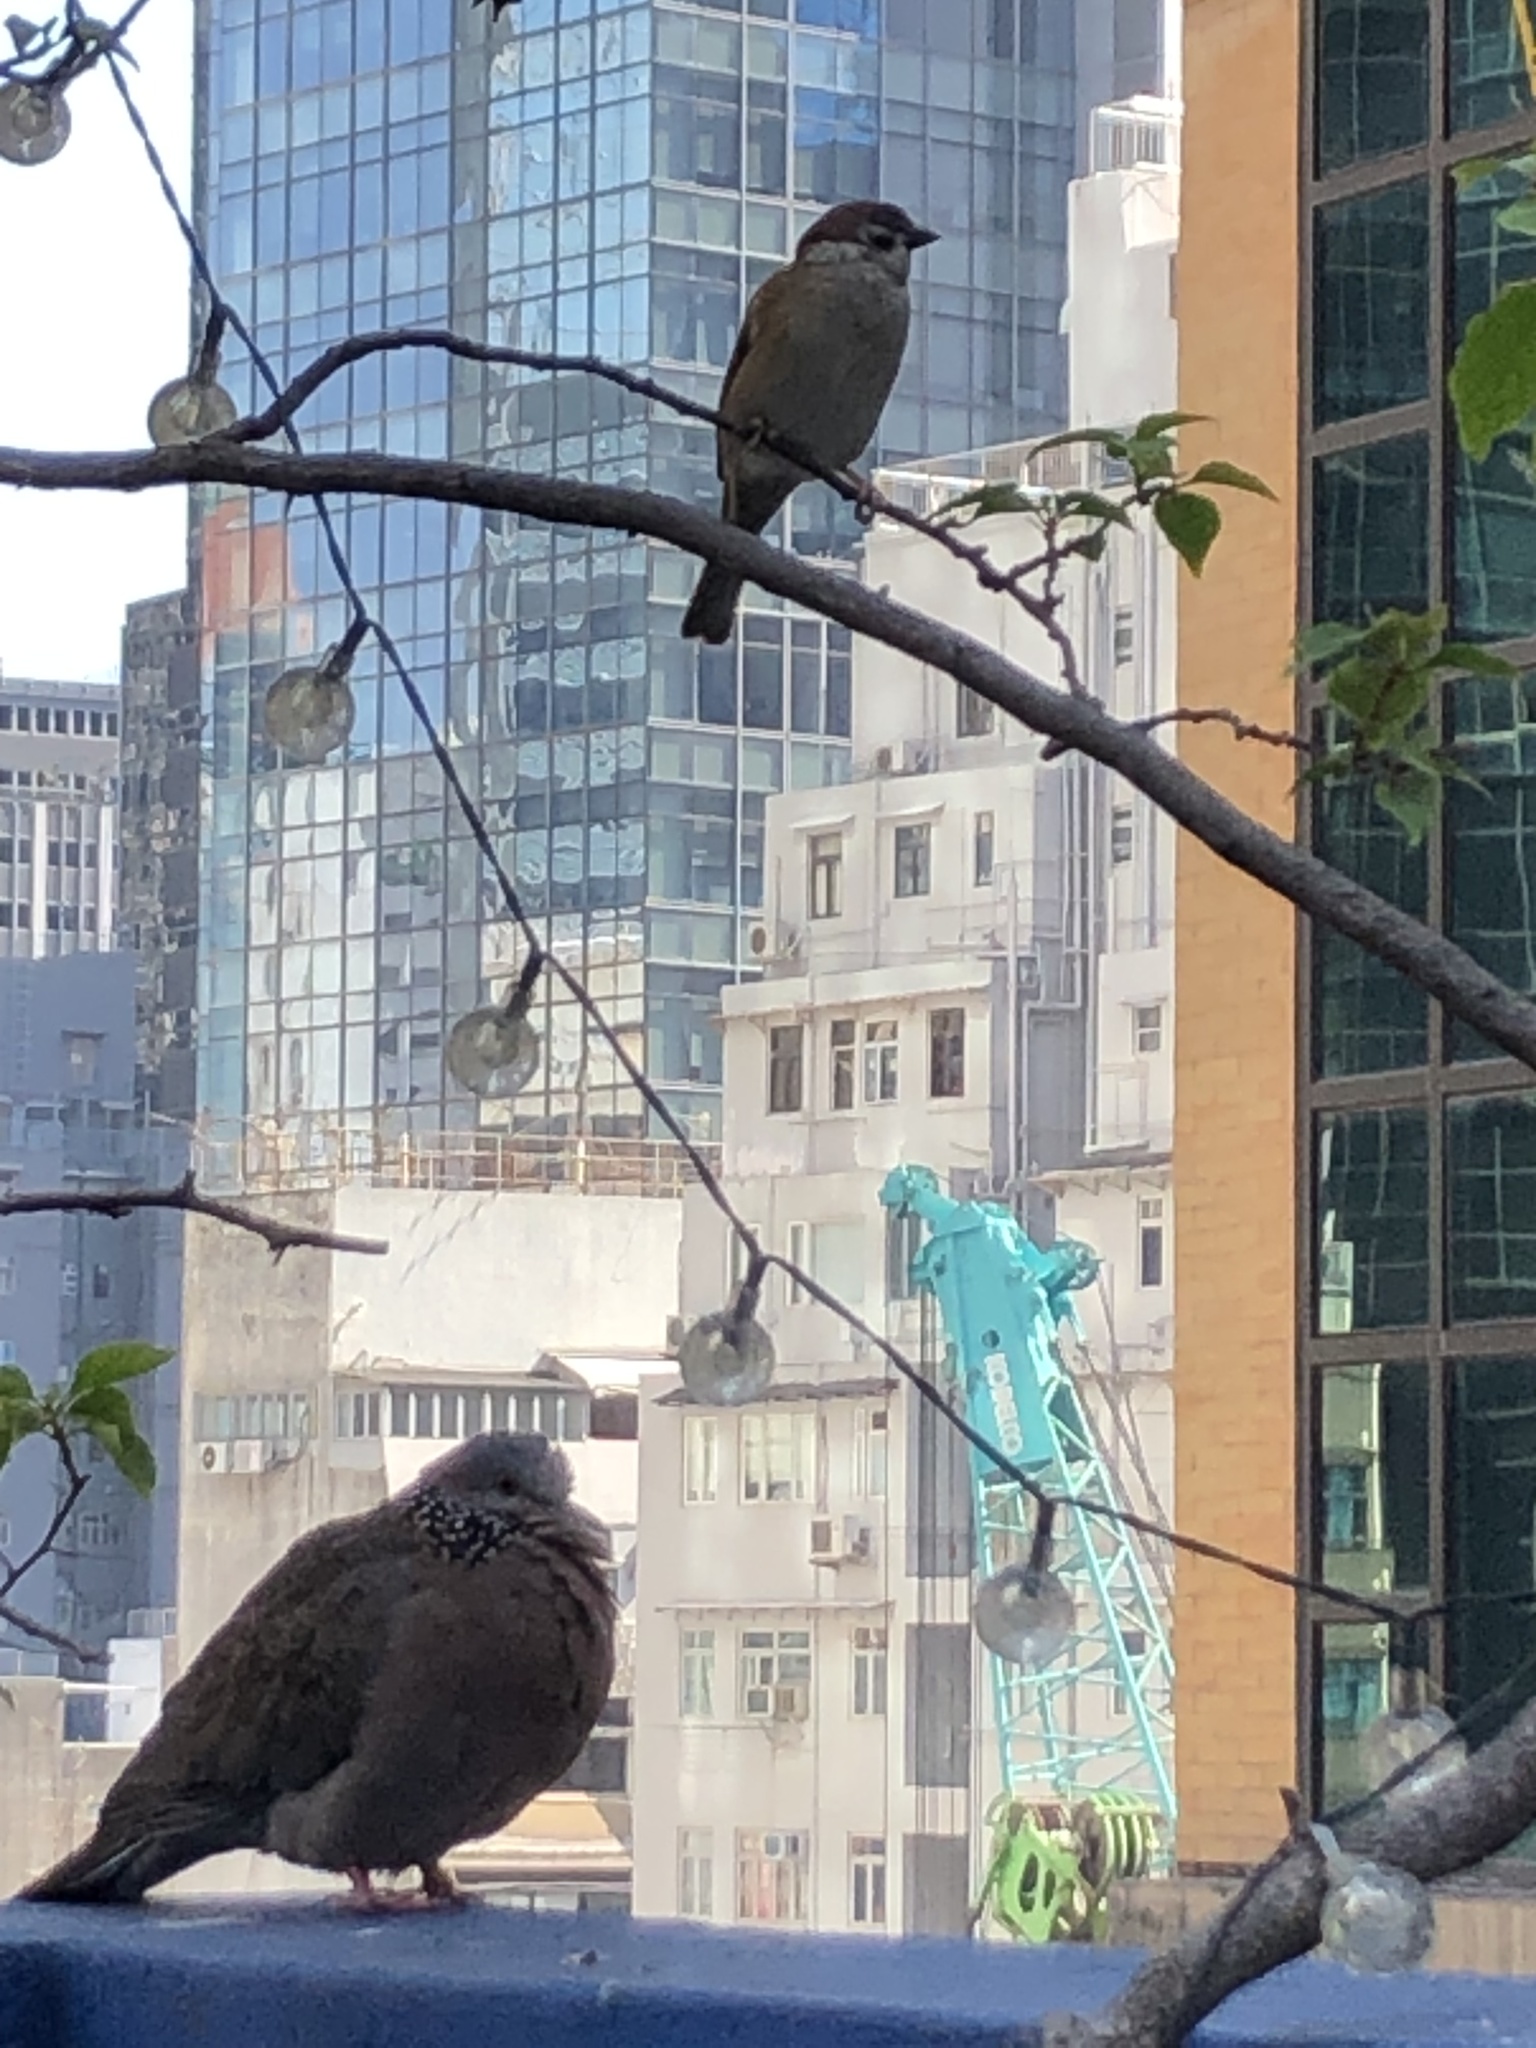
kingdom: Animalia
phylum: Chordata
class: Aves
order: Columbiformes
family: Columbidae
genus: Spilopelia
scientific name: Spilopelia chinensis
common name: Spotted dove
